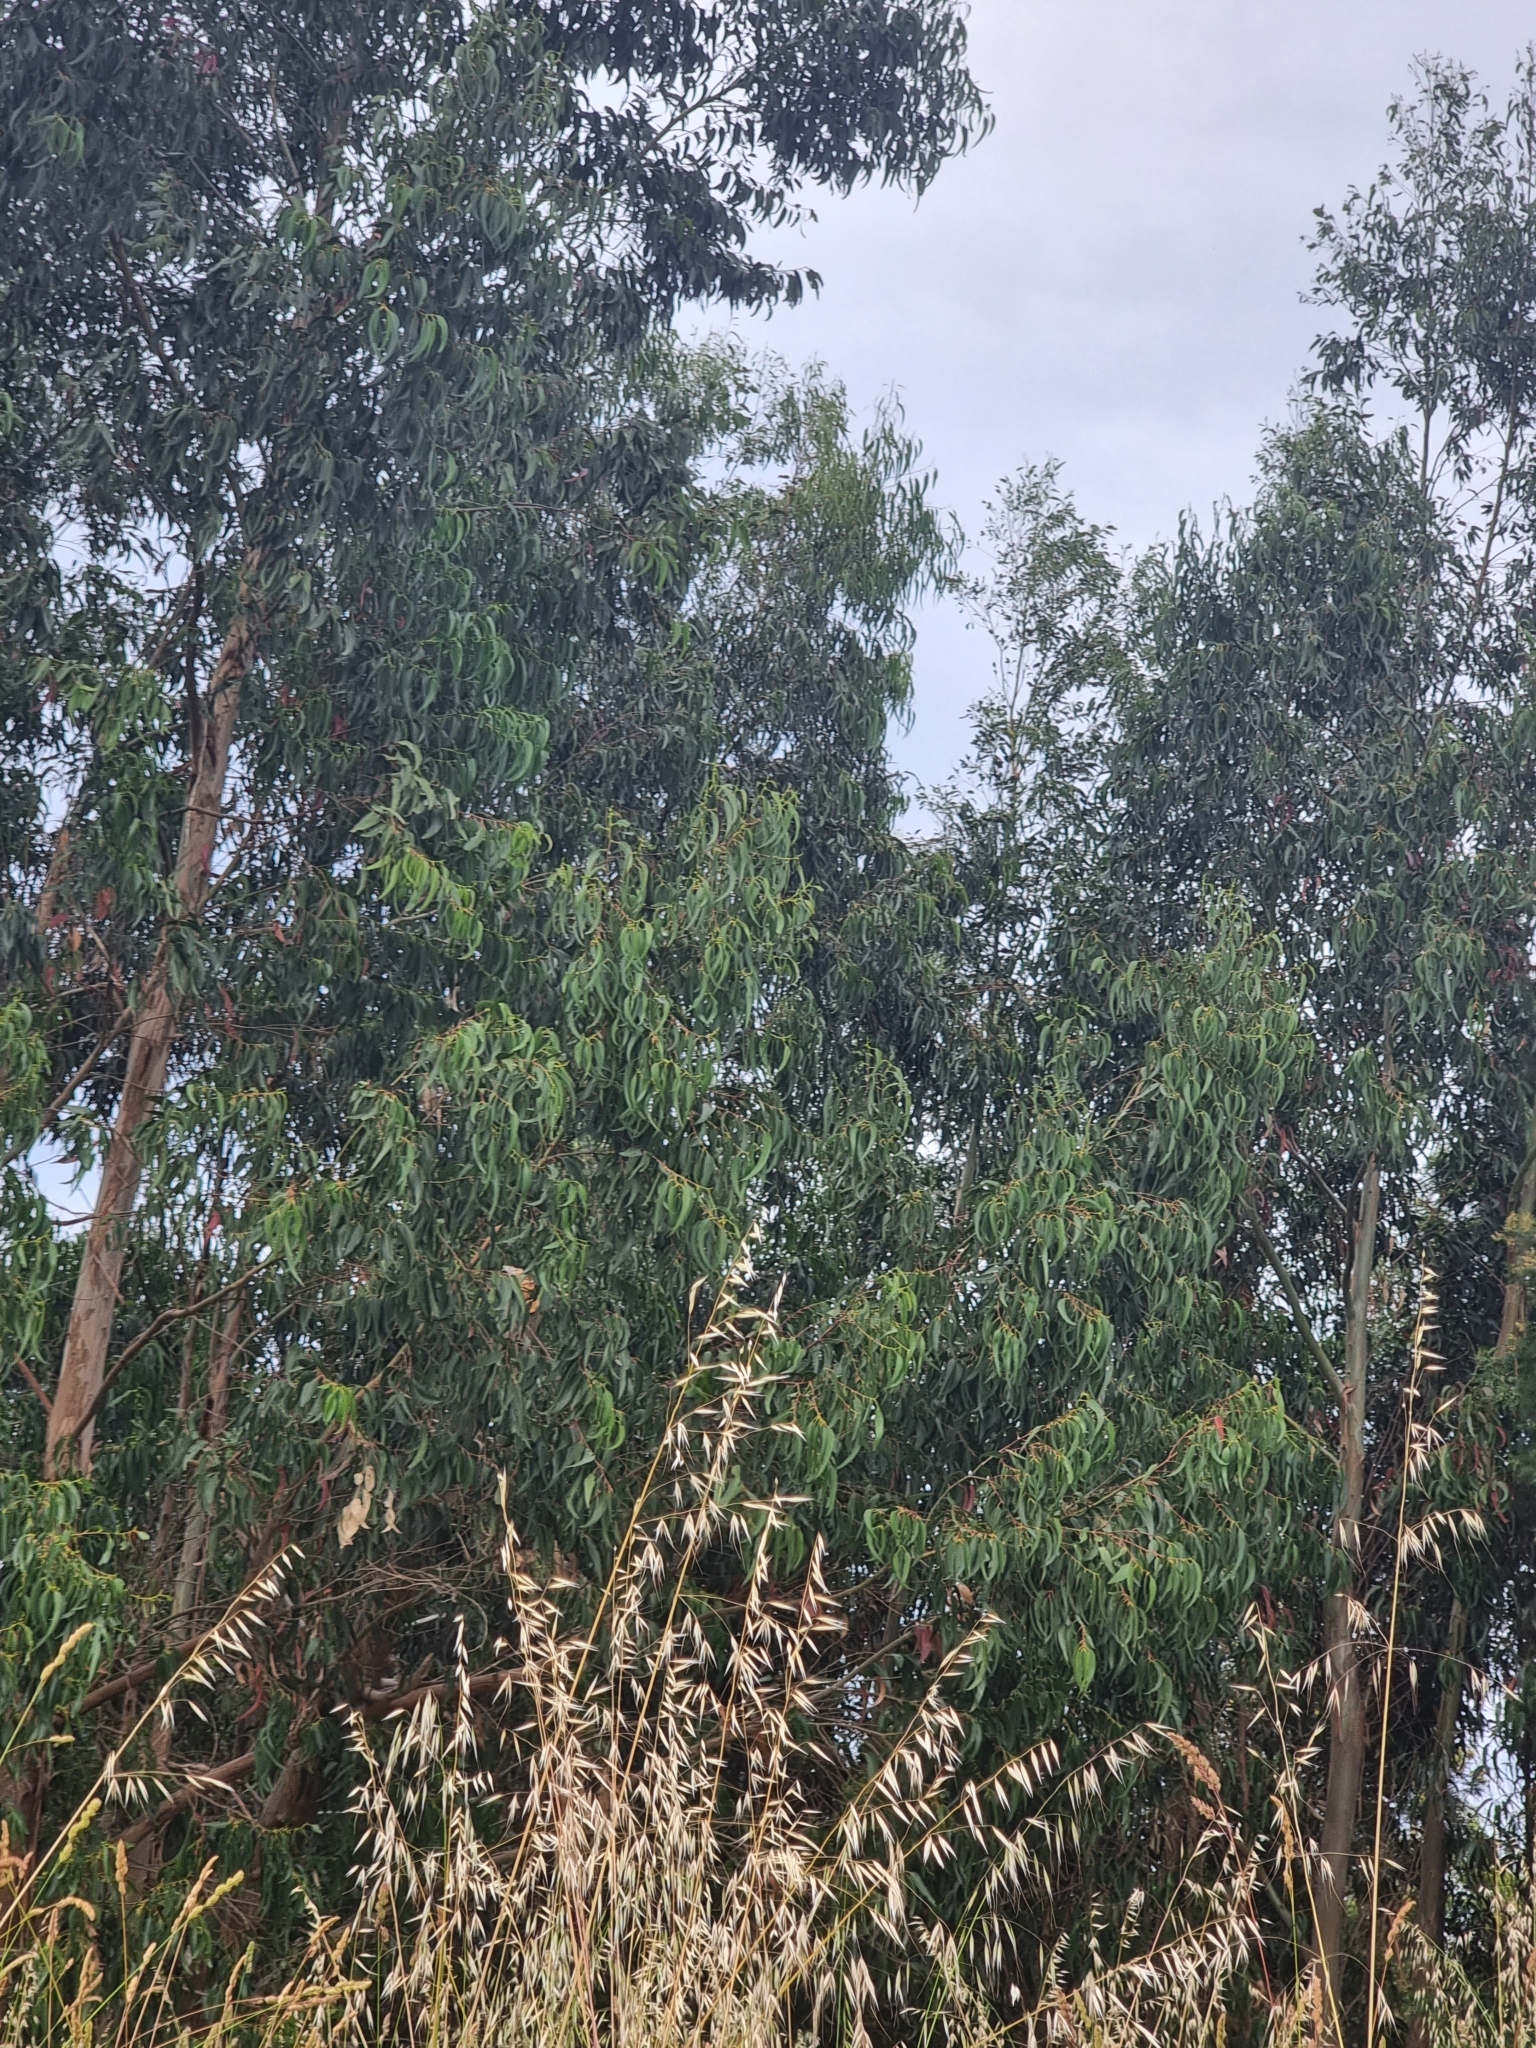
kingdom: Plantae
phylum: Tracheophyta
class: Magnoliopsida
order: Myrtales
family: Myrtaceae
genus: Eucalyptus
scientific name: Eucalyptus globulus
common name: Southern blue-gum
